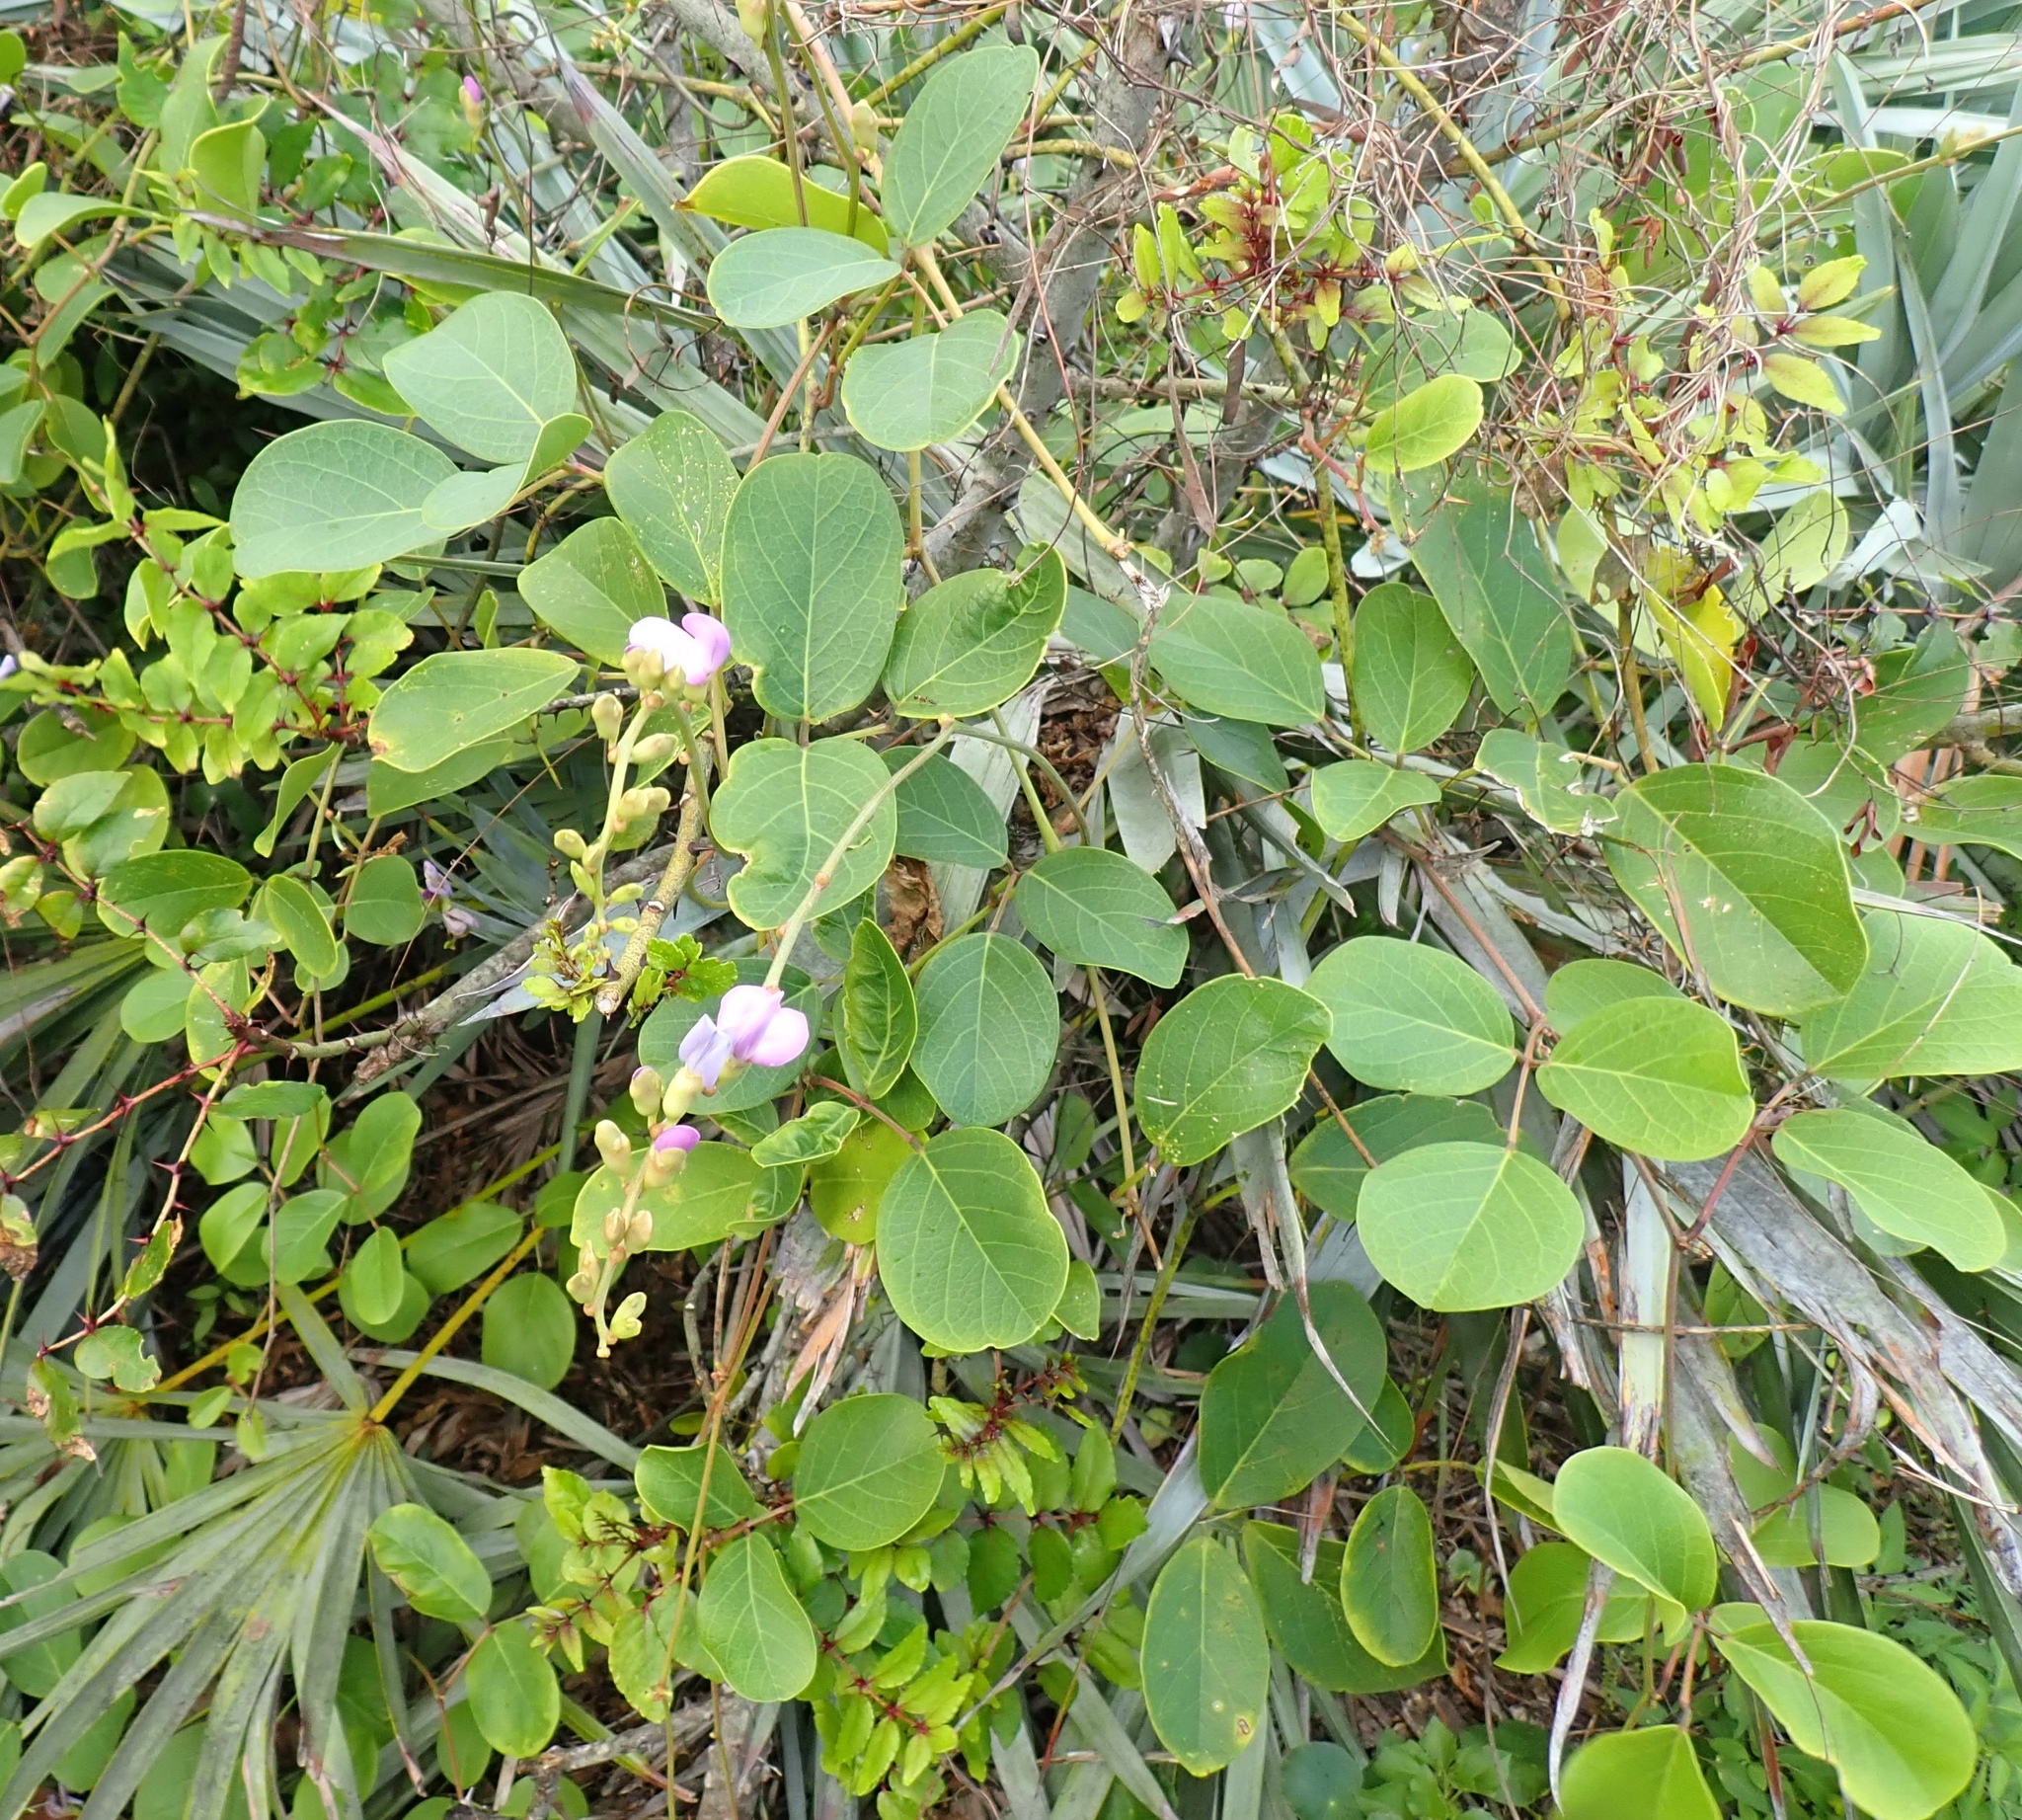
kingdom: Plantae
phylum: Tracheophyta
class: Magnoliopsida
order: Fabales
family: Fabaceae
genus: Canavalia
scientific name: Canavalia rosea
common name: Beach-bean
